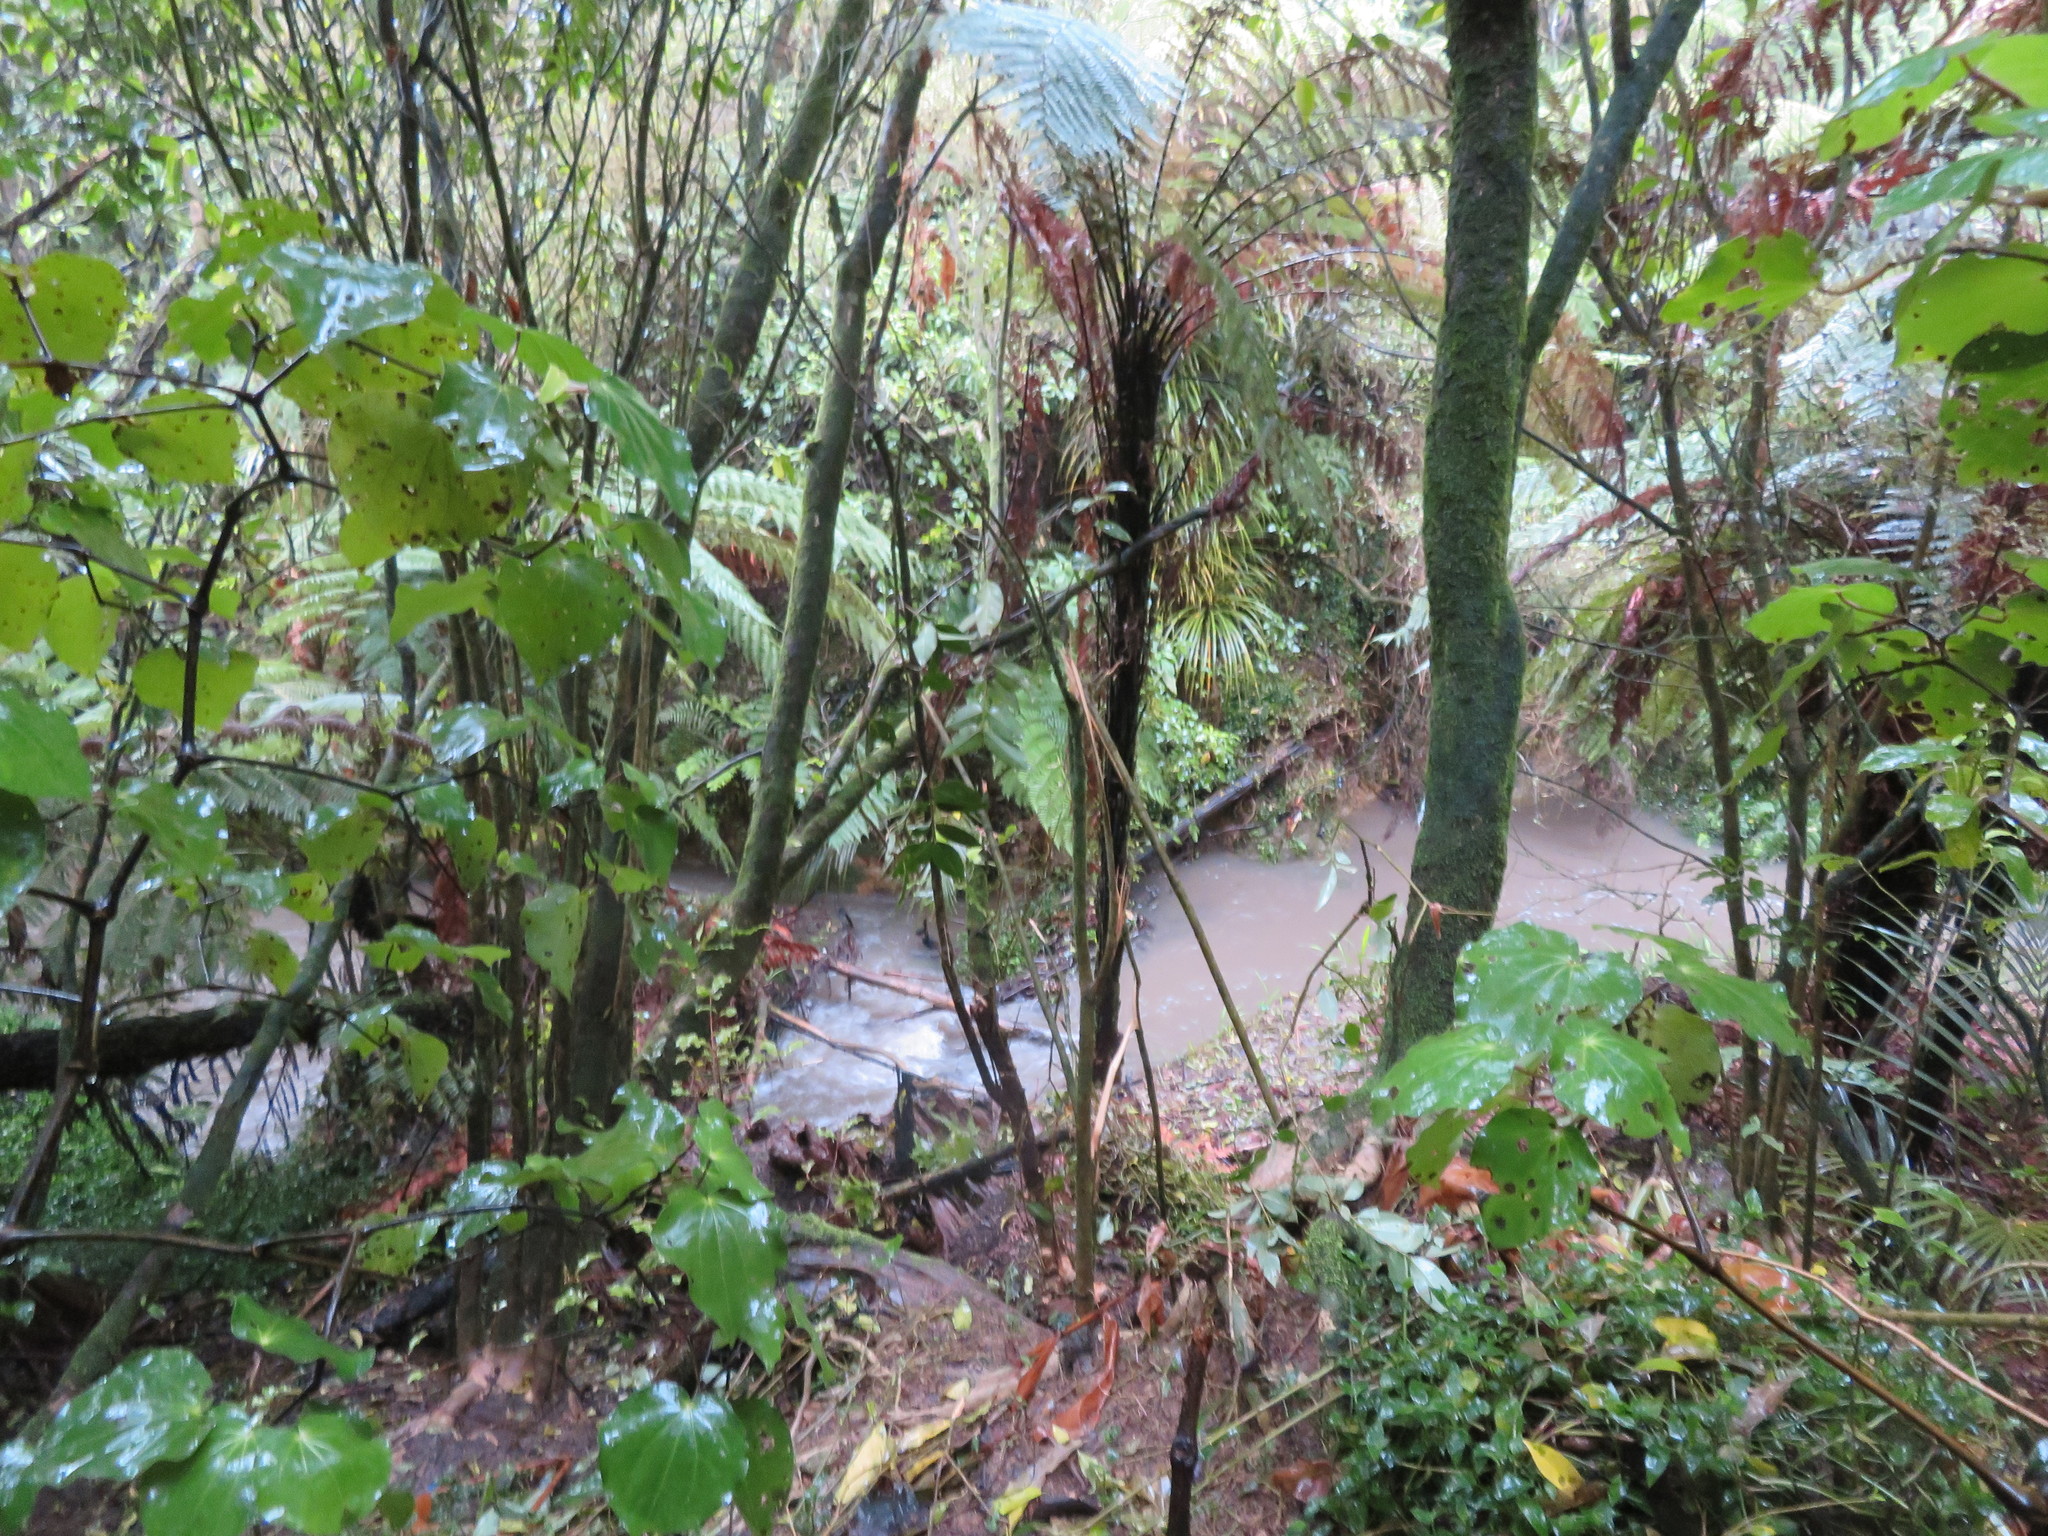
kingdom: Plantae
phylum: Tracheophyta
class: Magnoliopsida
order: Piperales
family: Piperaceae
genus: Macropiper
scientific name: Macropiper excelsum
